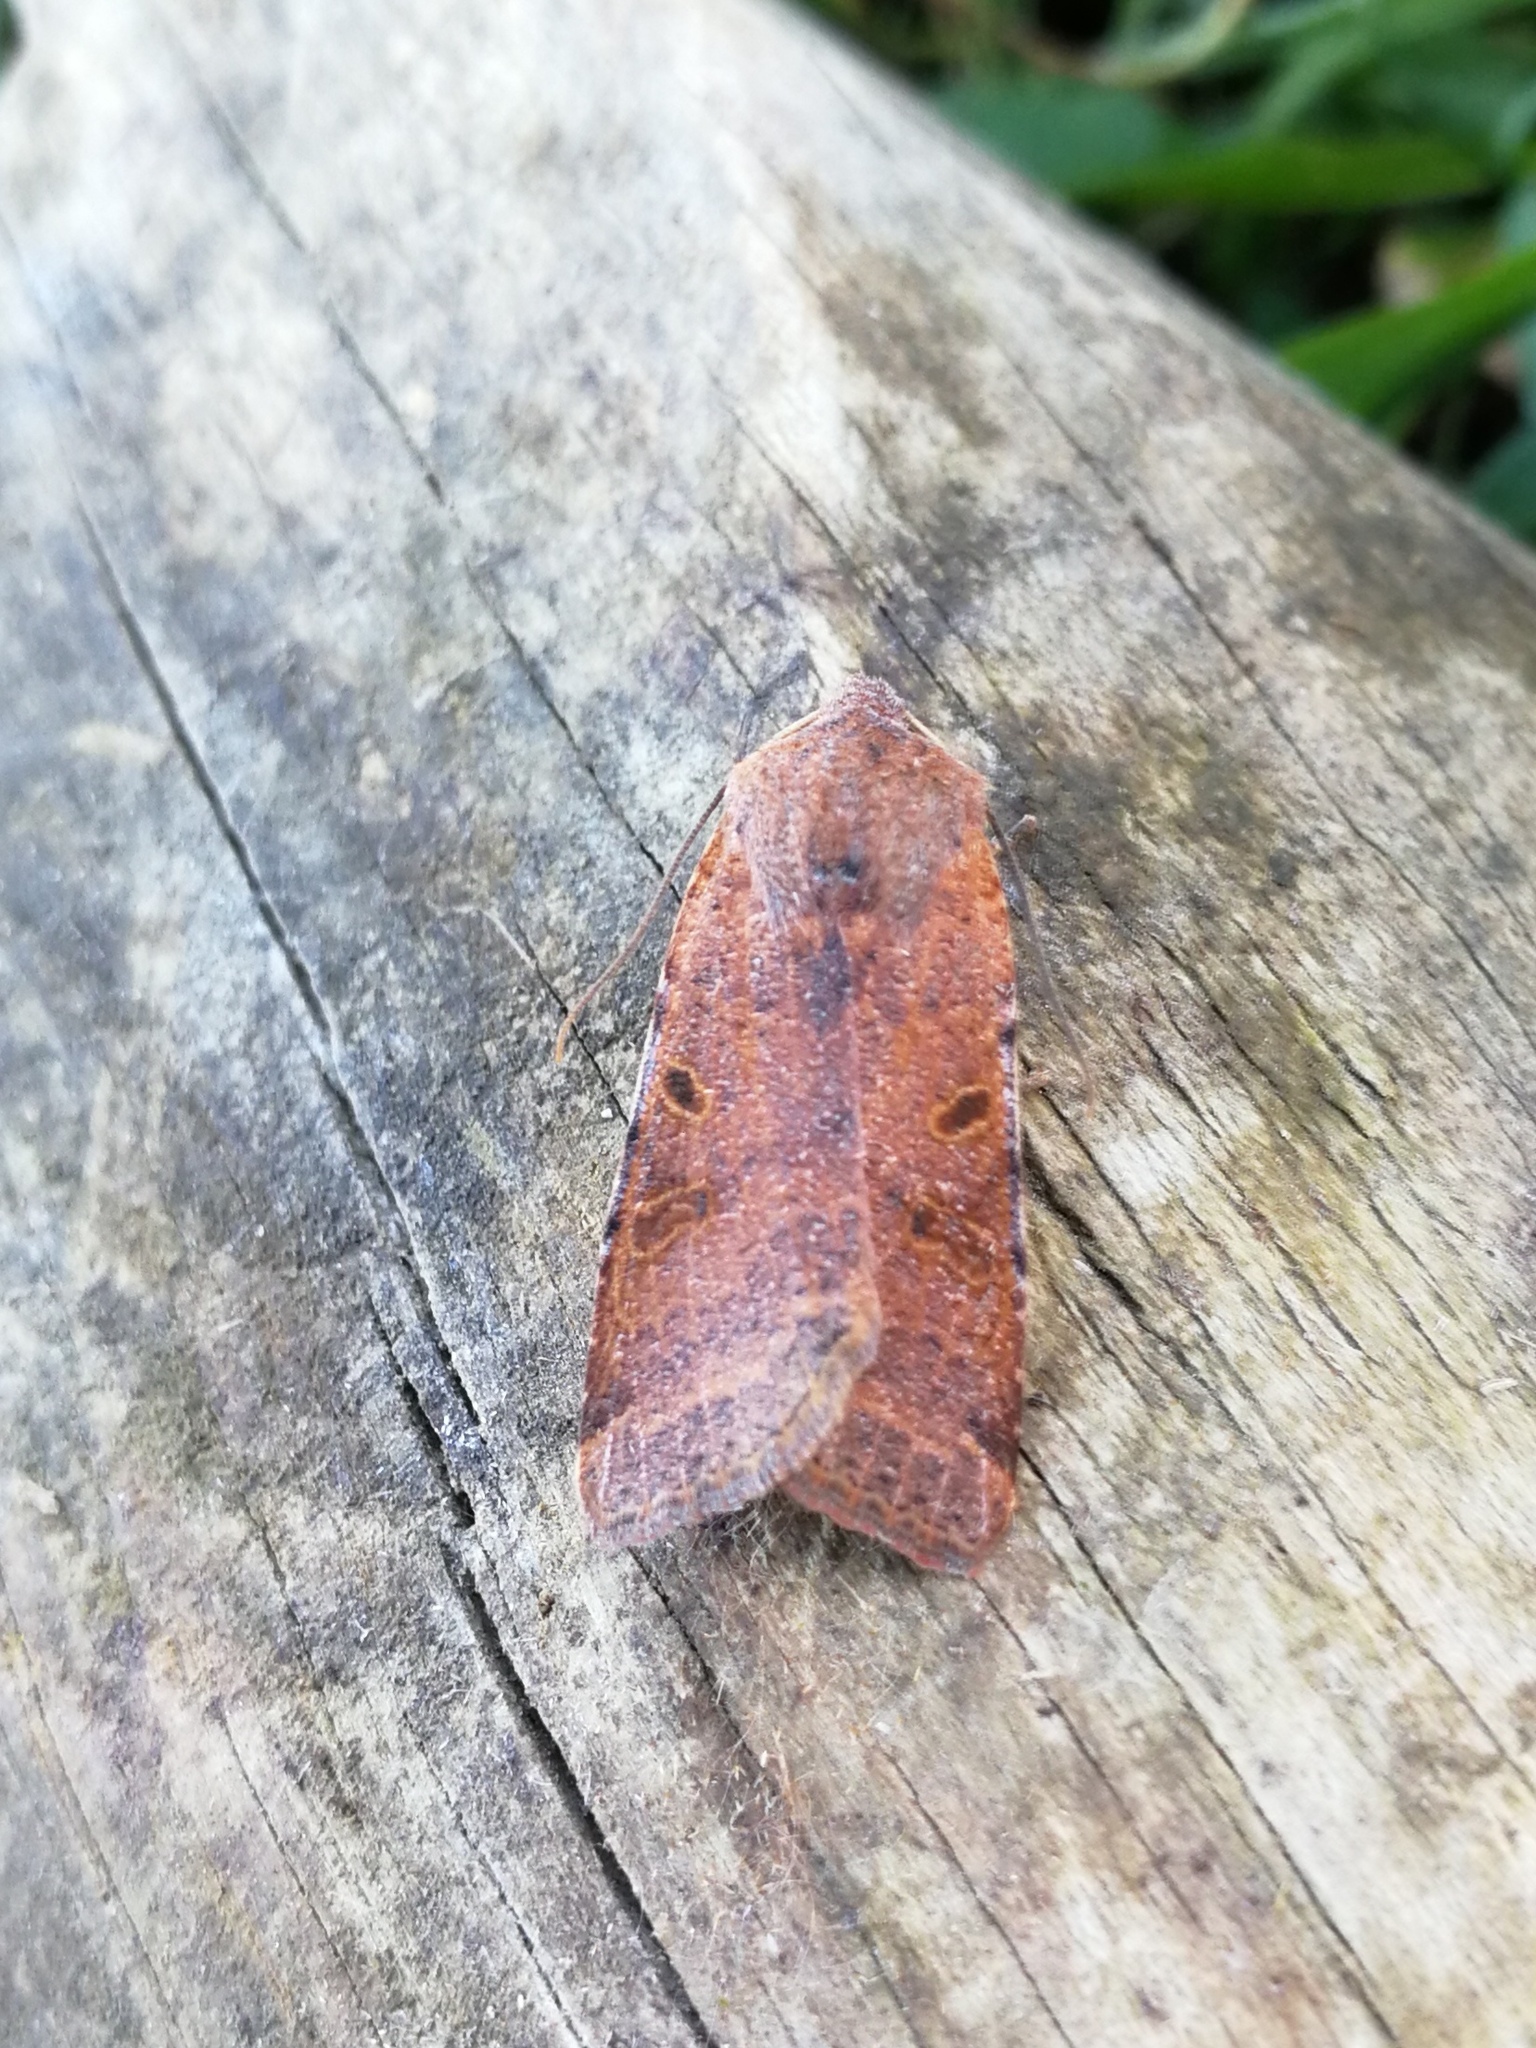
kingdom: Animalia
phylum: Arthropoda
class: Insecta
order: Lepidoptera
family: Noctuidae
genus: Agrochola
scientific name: Agrochola lychnidis
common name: Beaded chestnut
